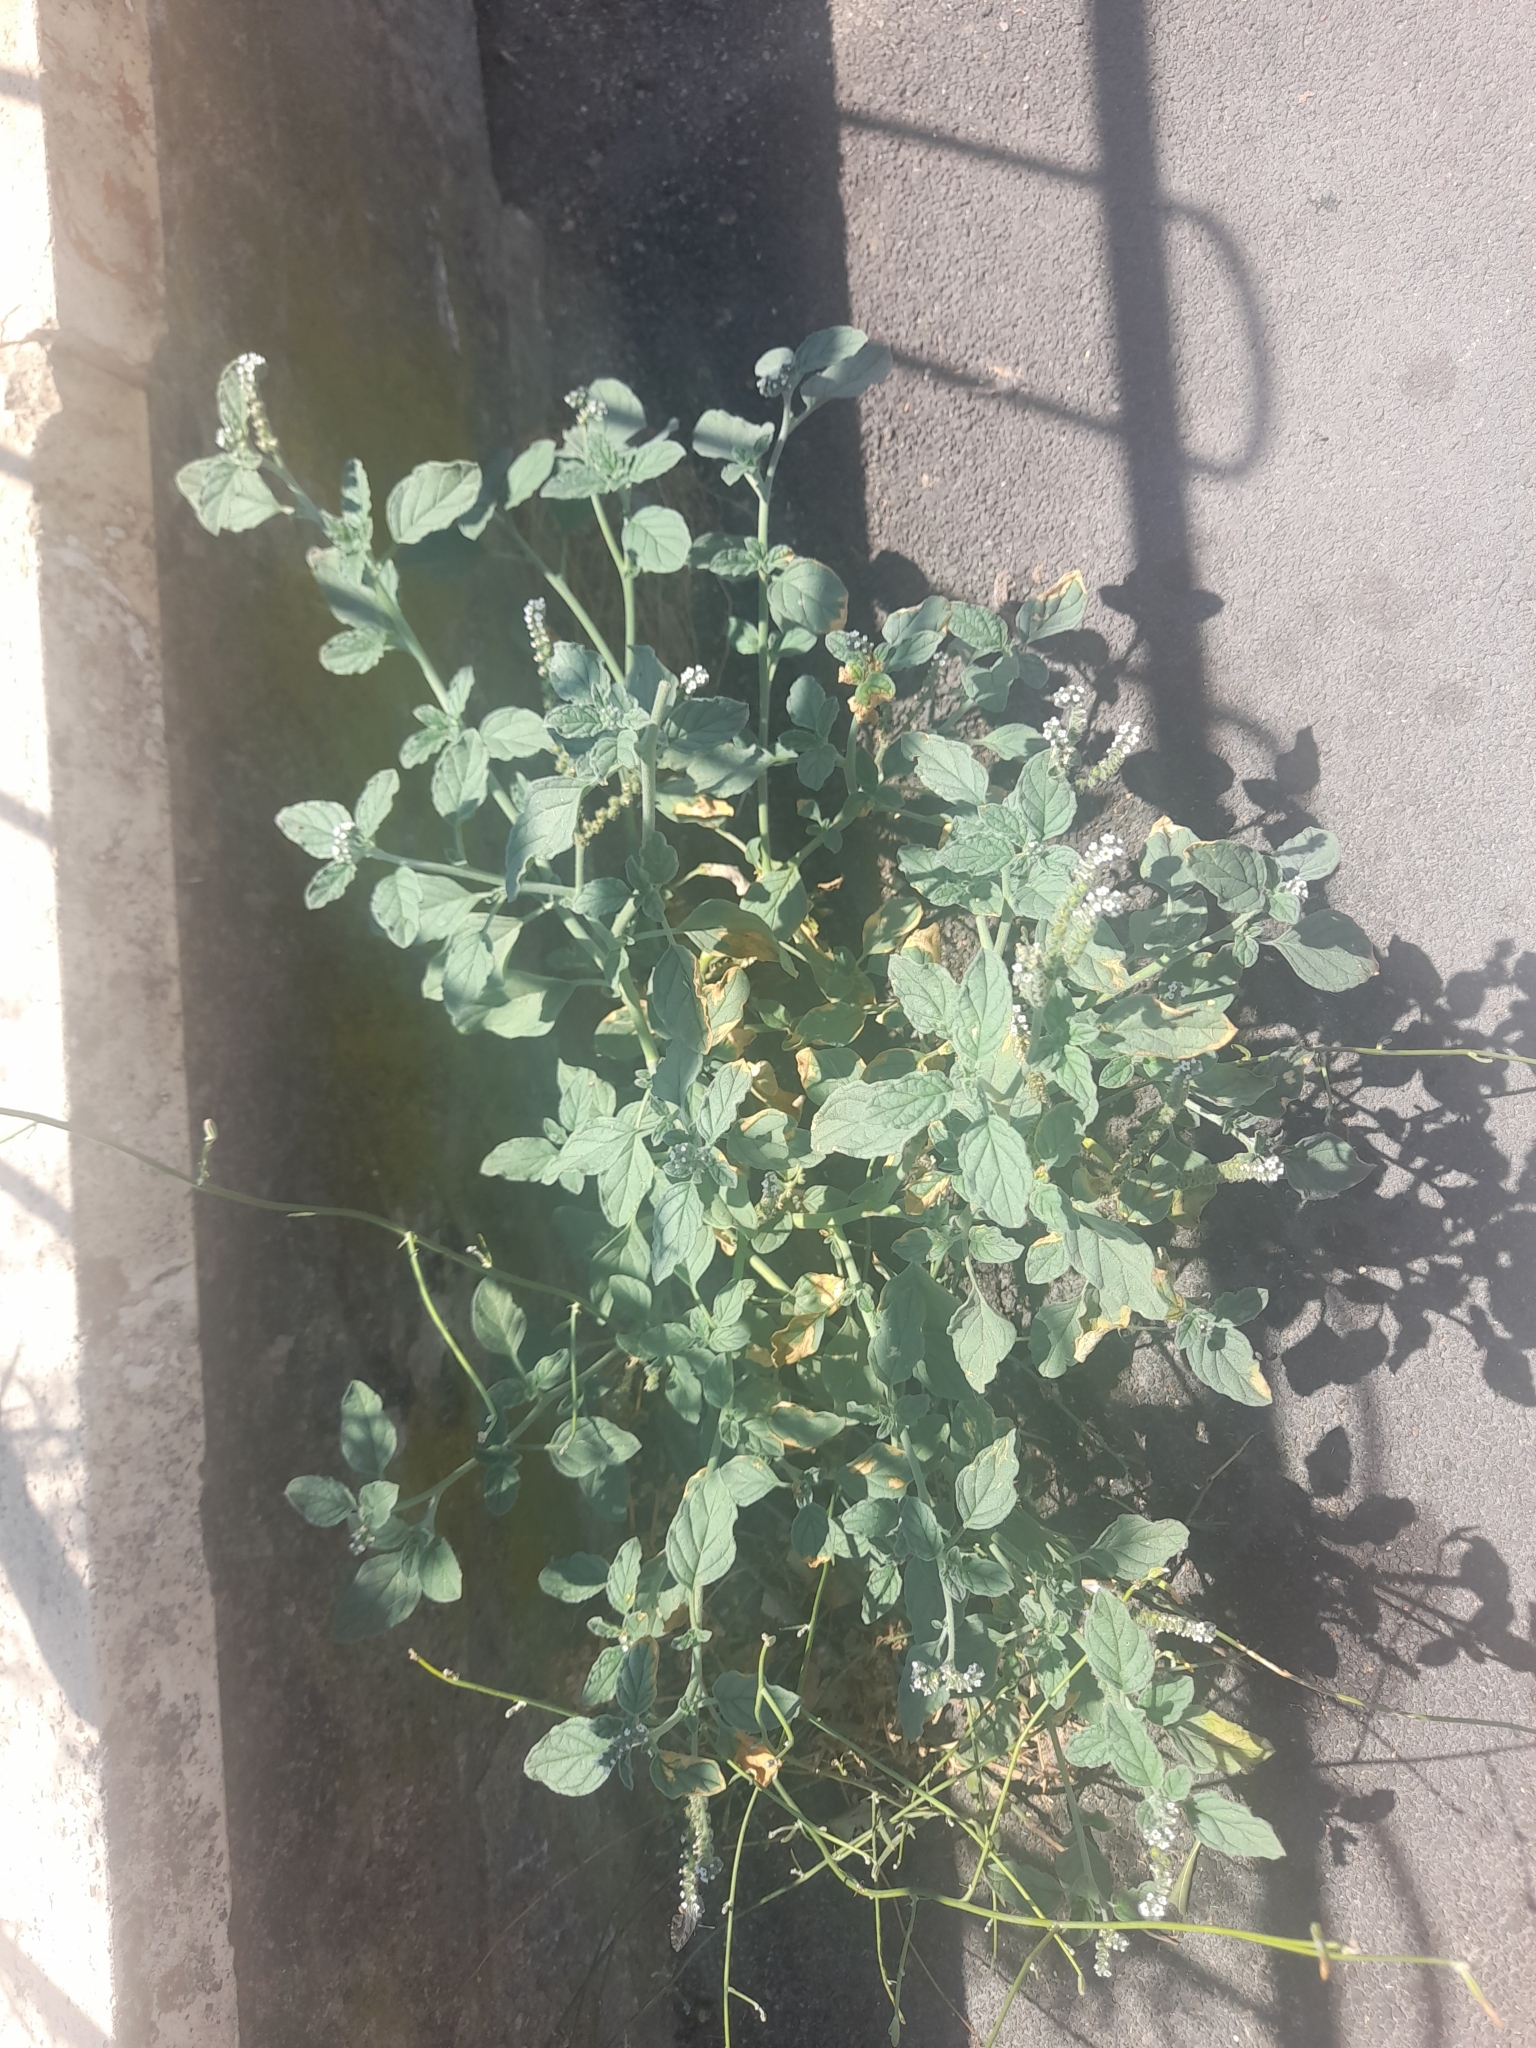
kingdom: Plantae
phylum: Tracheophyta
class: Magnoliopsida
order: Boraginales
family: Heliotropiaceae
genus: Heliotropium
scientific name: Heliotropium europaeum
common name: European heliotrope
